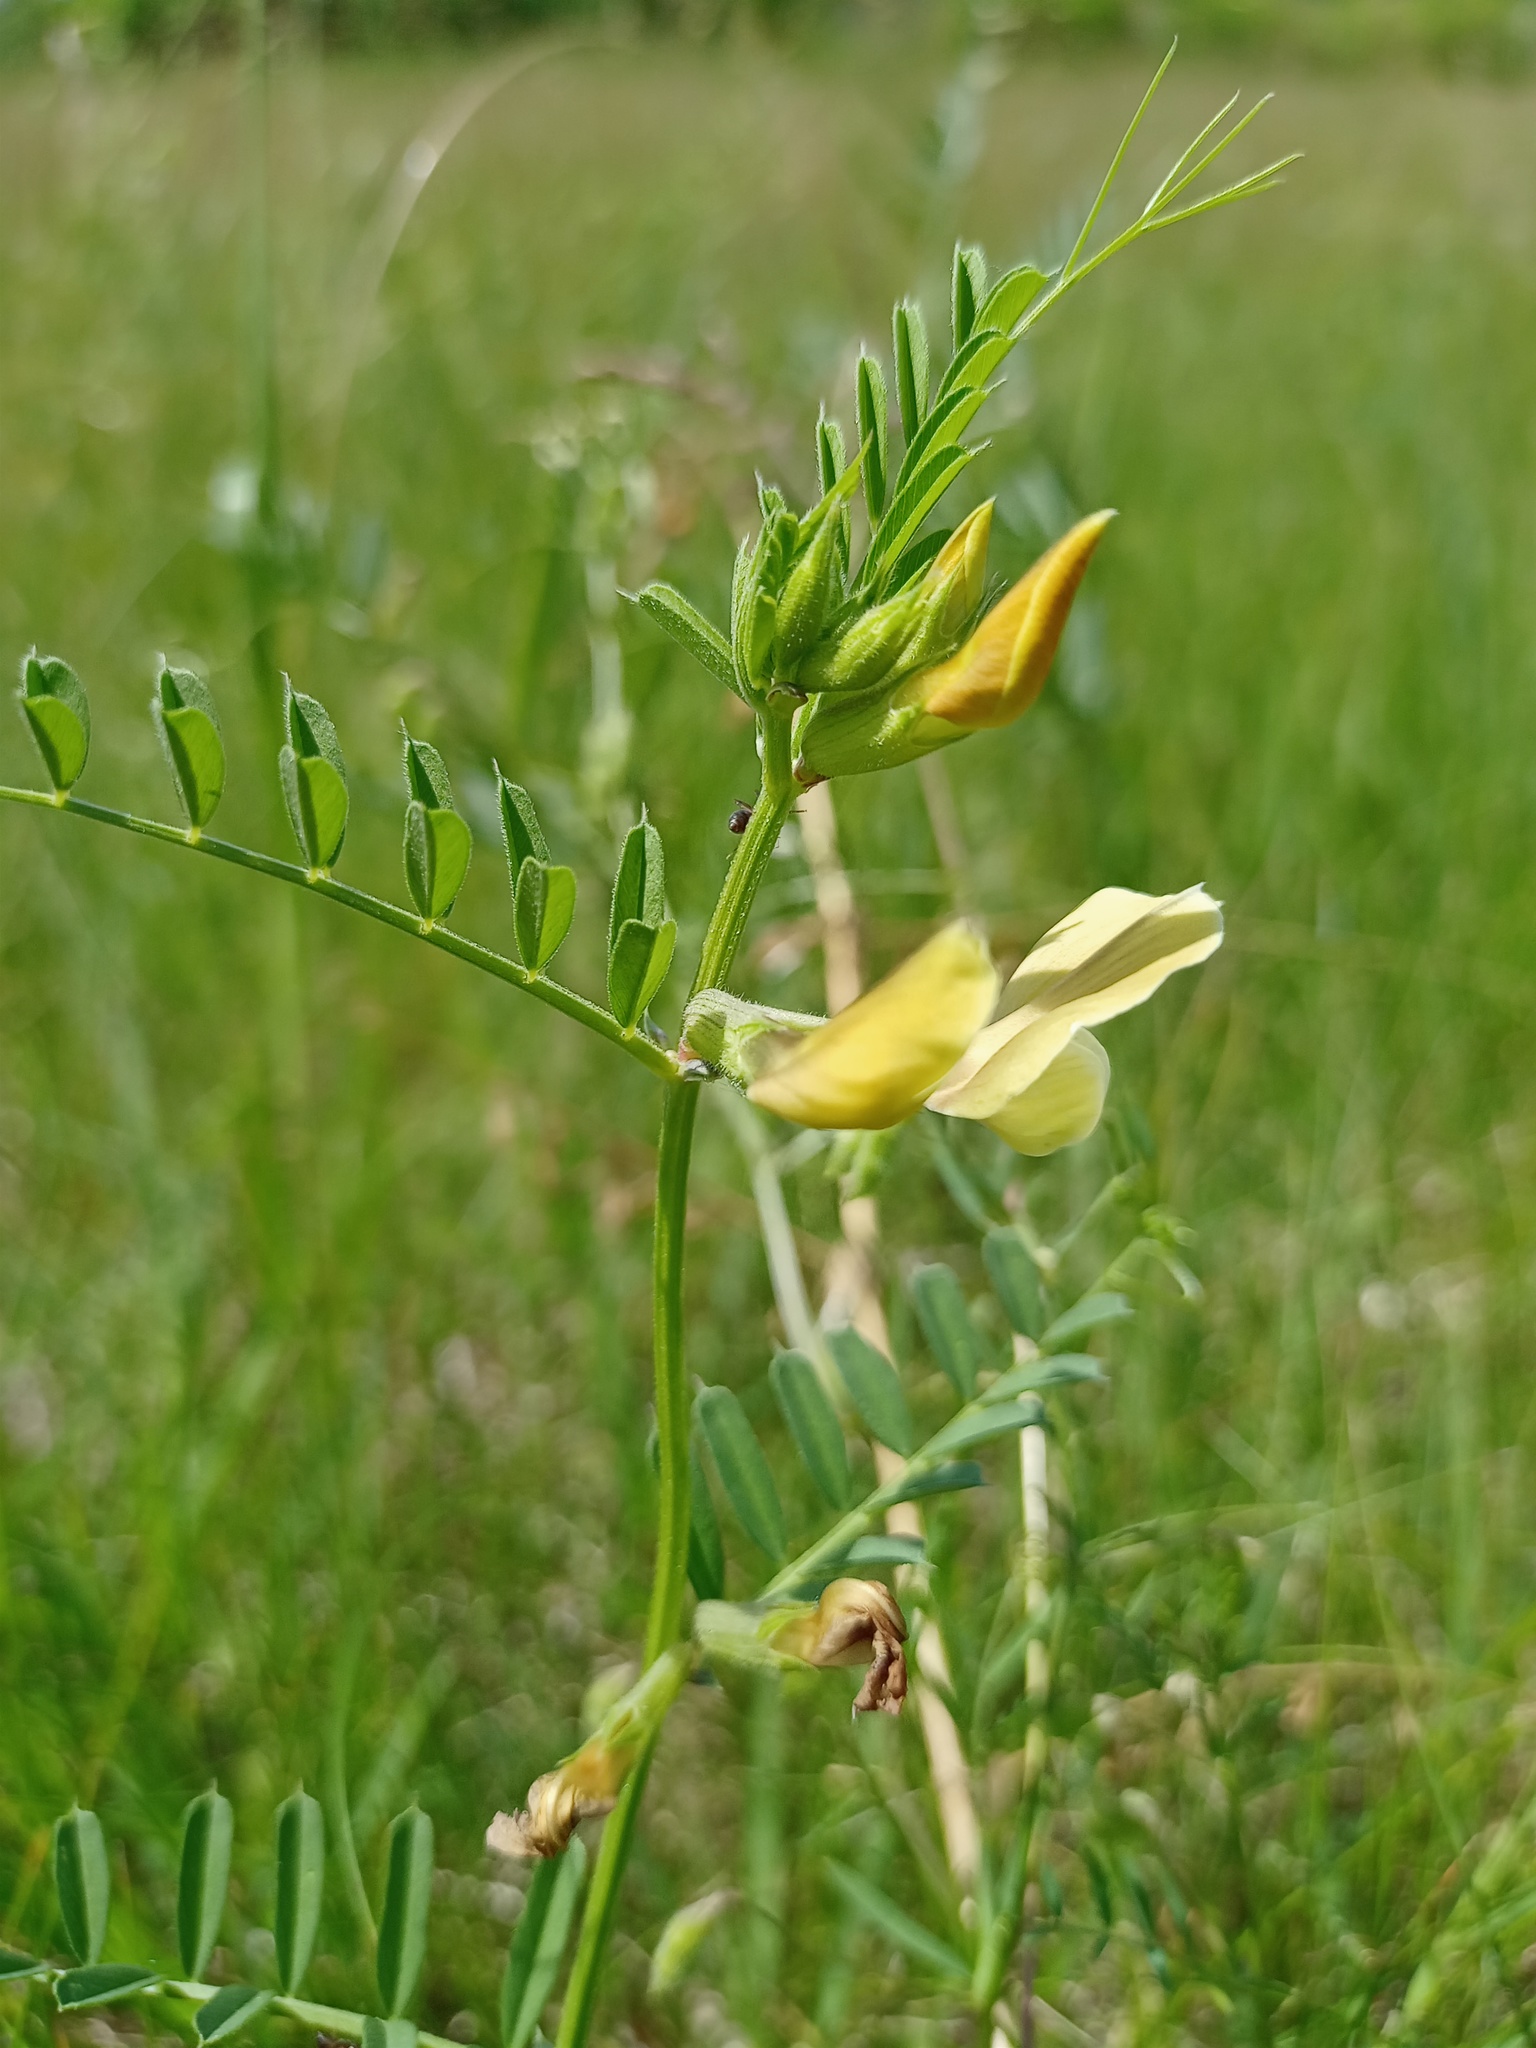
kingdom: Plantae
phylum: Tracheophyta
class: Magnoliopsida
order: Fabales
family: Fabaceae
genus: Vicia
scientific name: Vicia grandiflora
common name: Large yellow vetch
